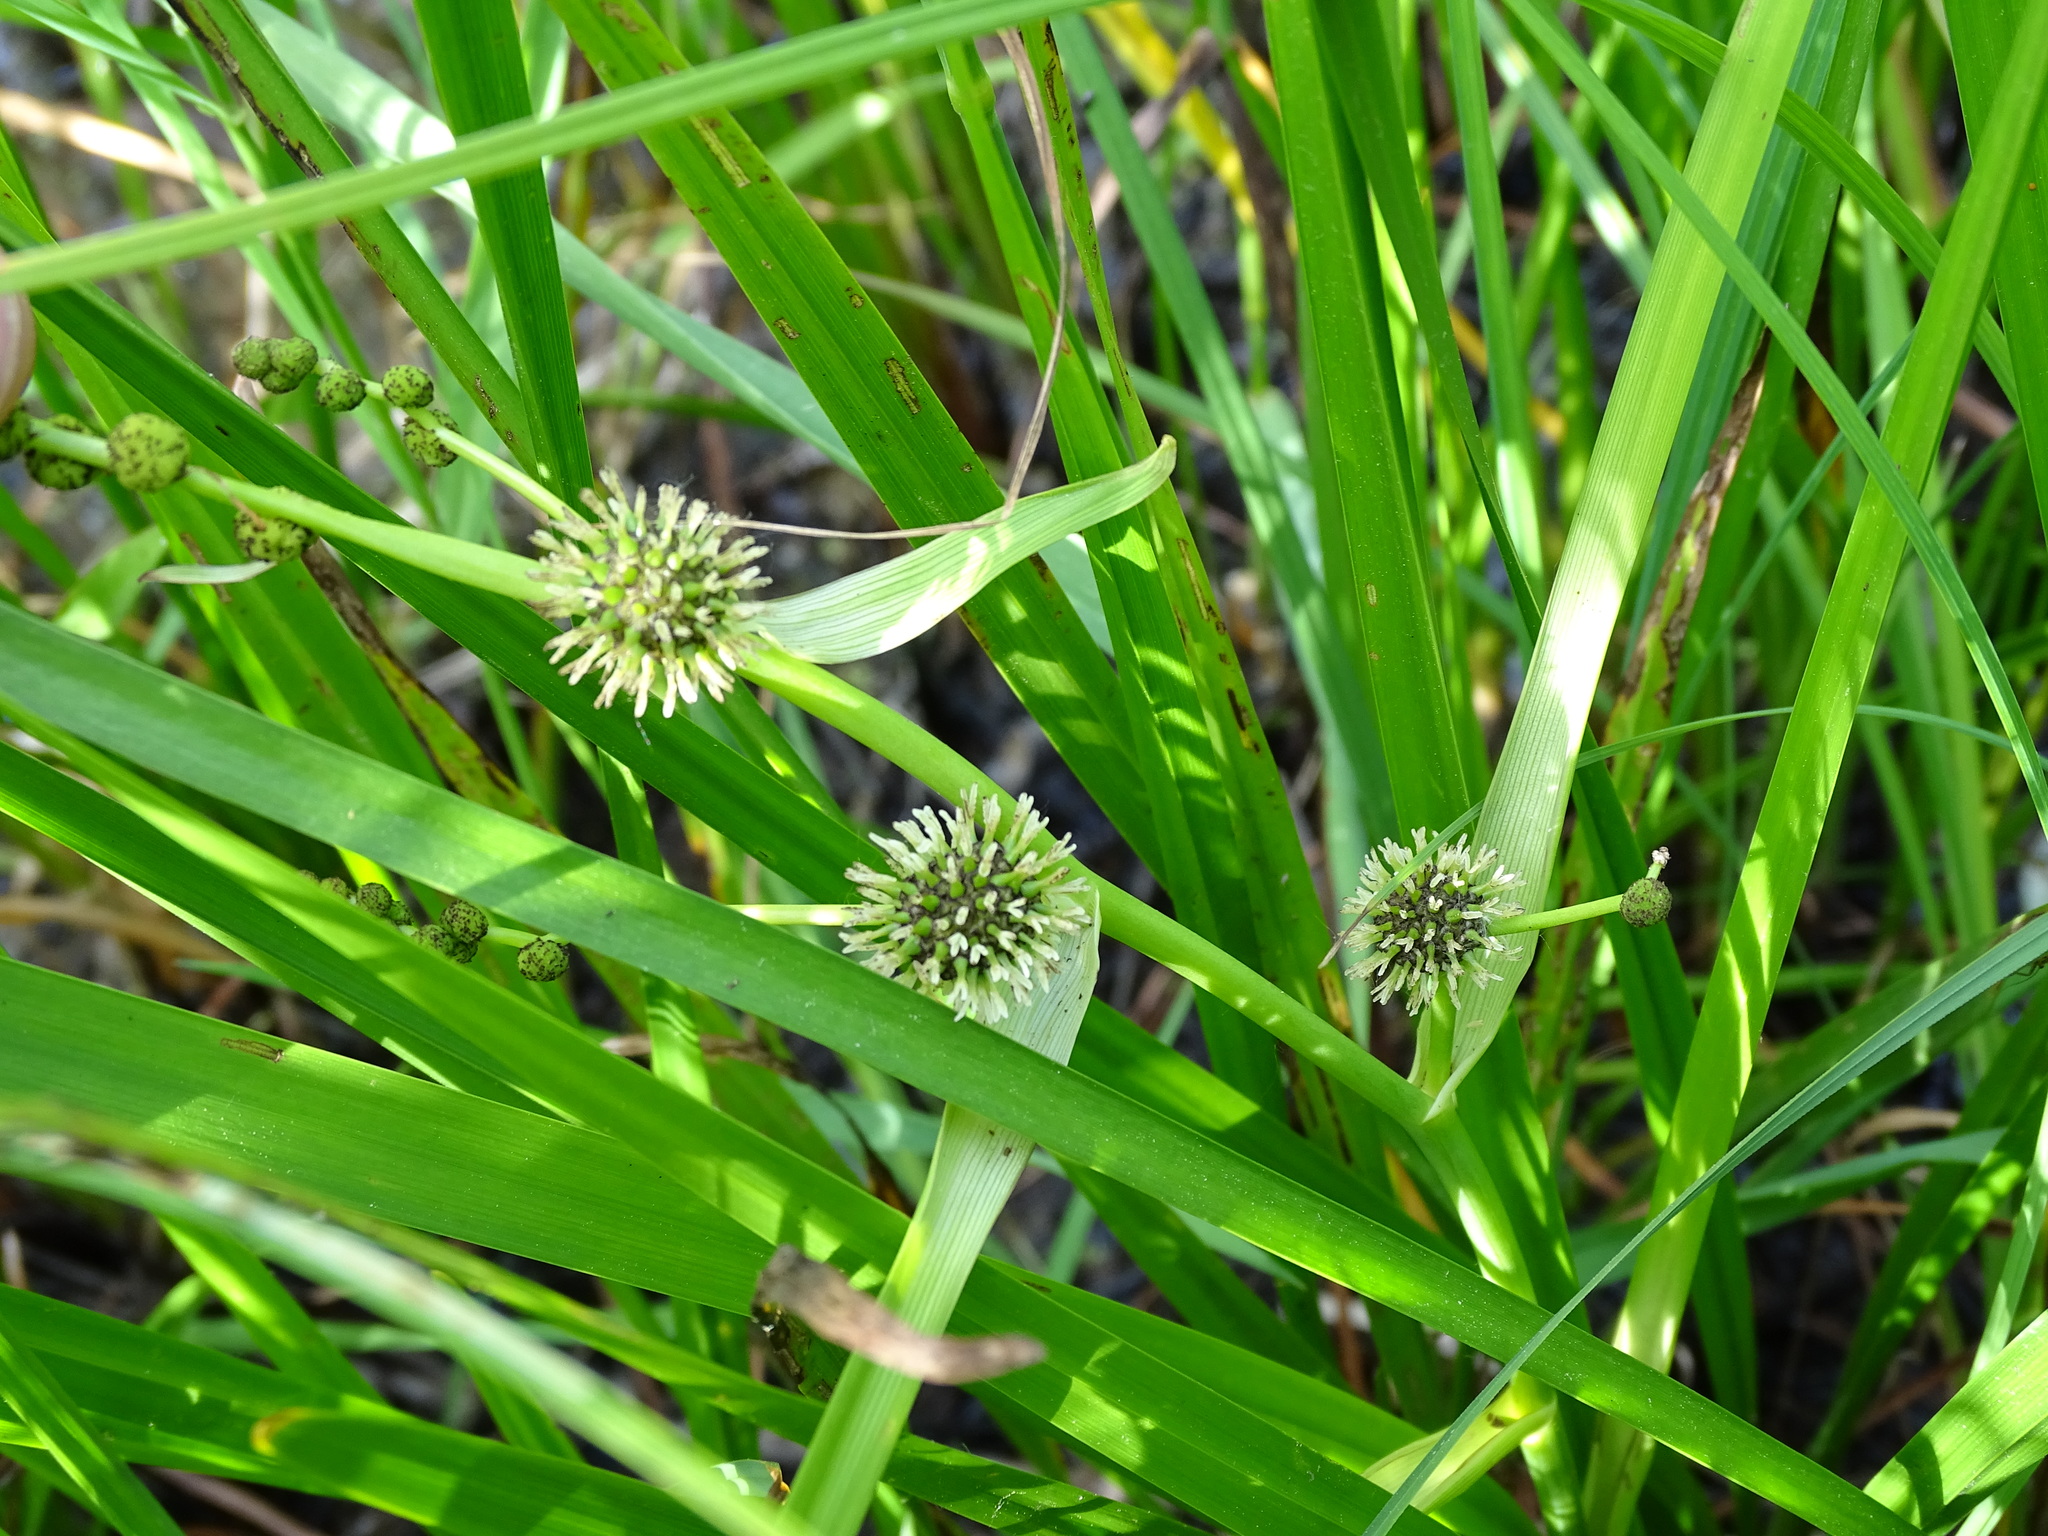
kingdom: Plantae
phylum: Tracheophyta
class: Liliopsida
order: Poales
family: Typhaceae
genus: Sparganium
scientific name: Sparganium eurycarpum
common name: Broad-fruited burreed
